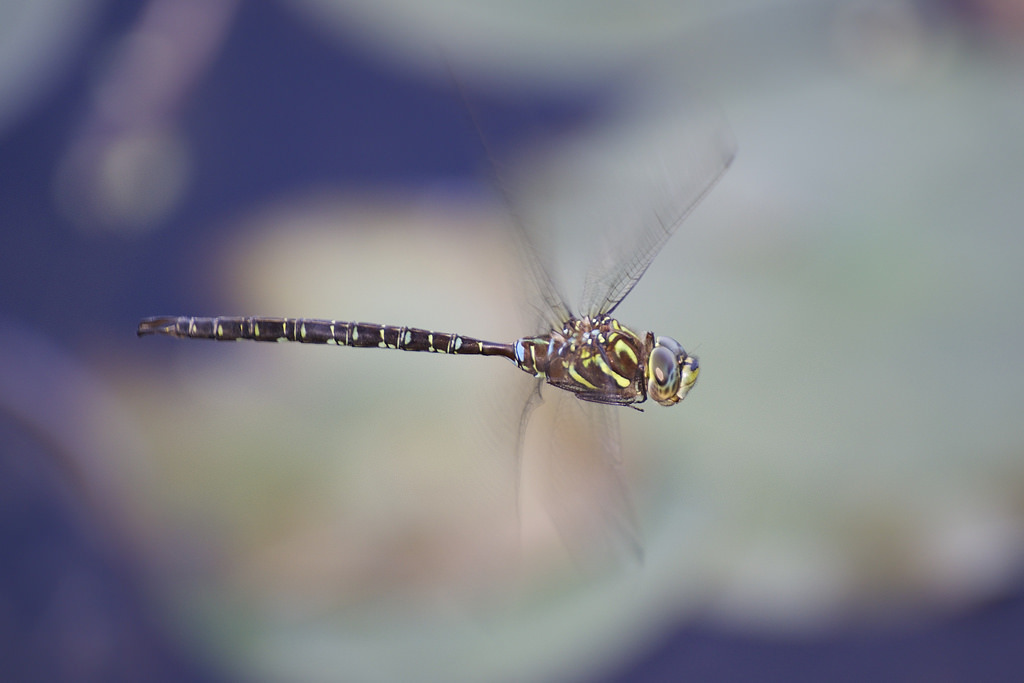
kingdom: Animalia
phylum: Arthropoda
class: Insecta
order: Odonata
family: Aeshnidae
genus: Aeshna
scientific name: Aeshna umbrosa
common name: Shadow darner
